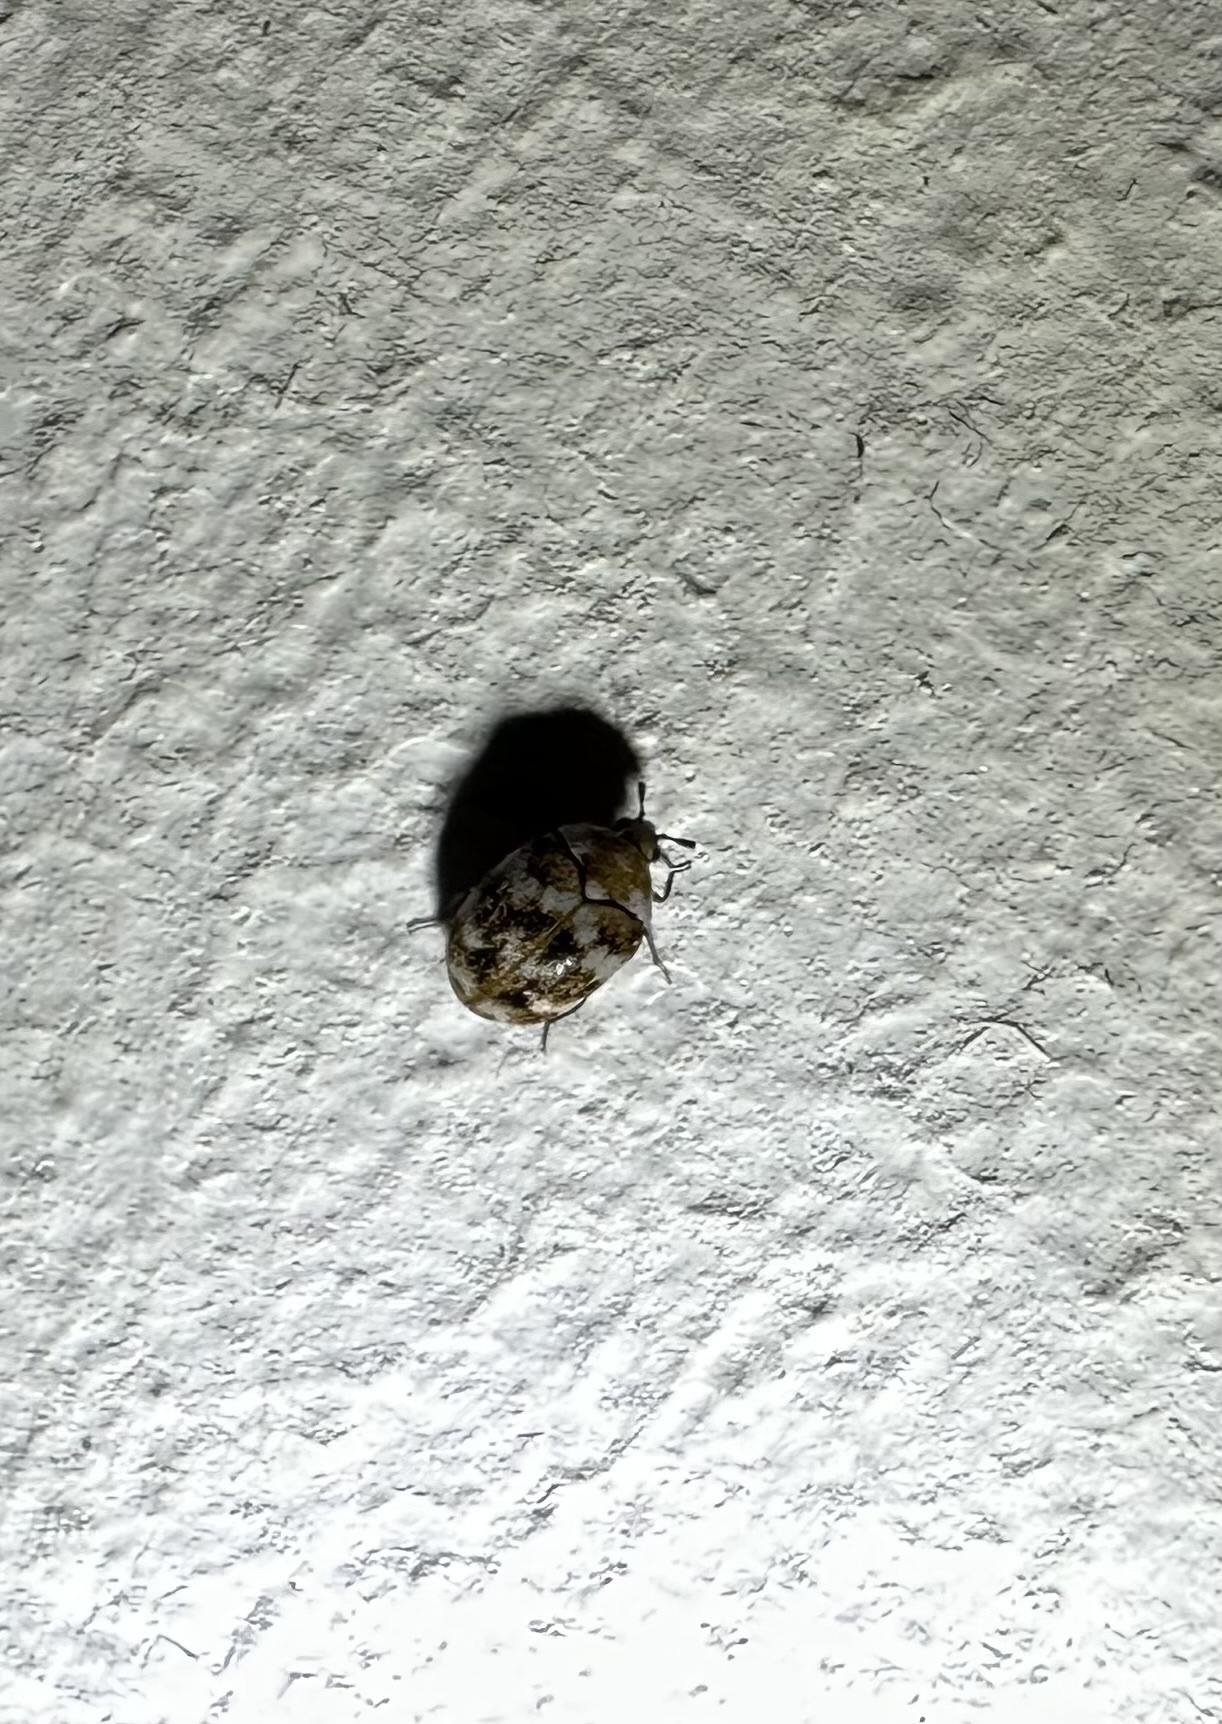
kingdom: Animalia
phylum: Arthropoda
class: Insecta
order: Coleoptera
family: Dermestidae
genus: Anthrenus
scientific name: Anthrenus verbasci
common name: Varied carpet beetle
